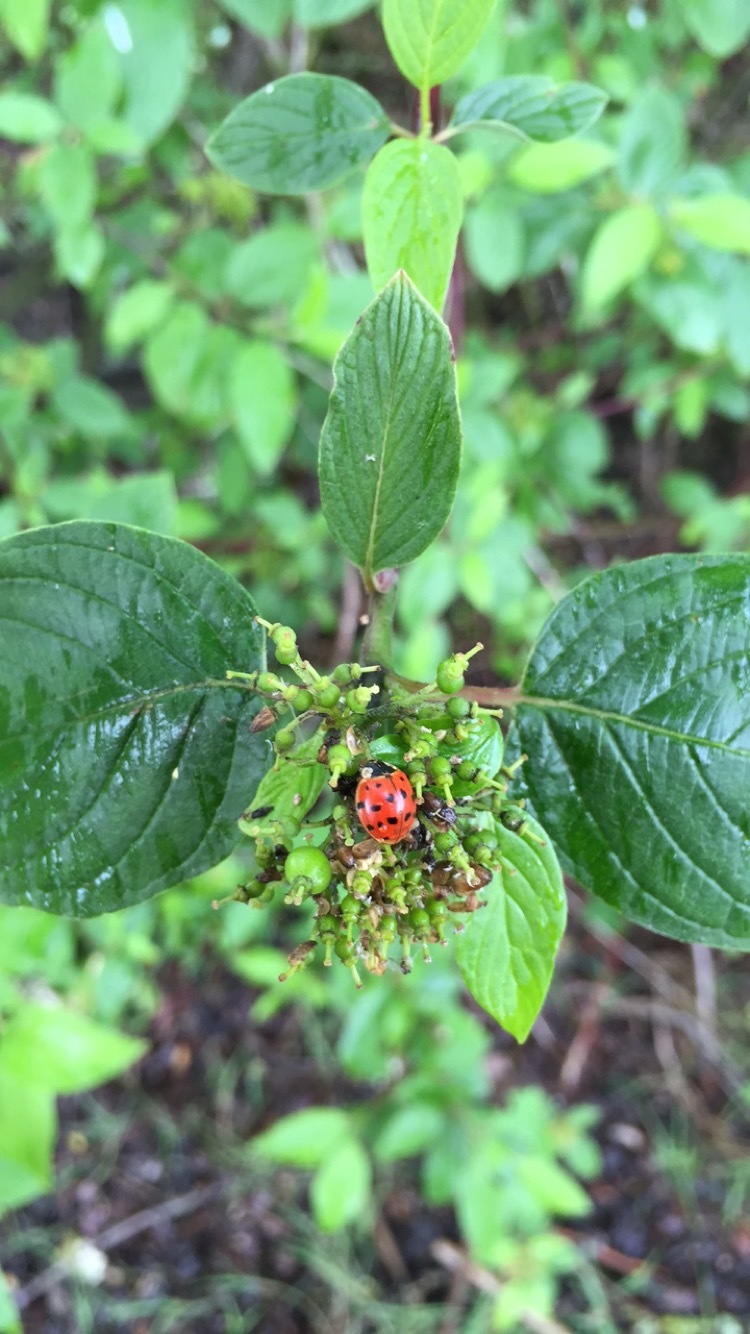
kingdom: Animalia
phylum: Arthropoda
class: Insecta
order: Coleoptera
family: Coccinellidae
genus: Harmonia
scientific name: Harmonia axyridis
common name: Harlequin ladybird
